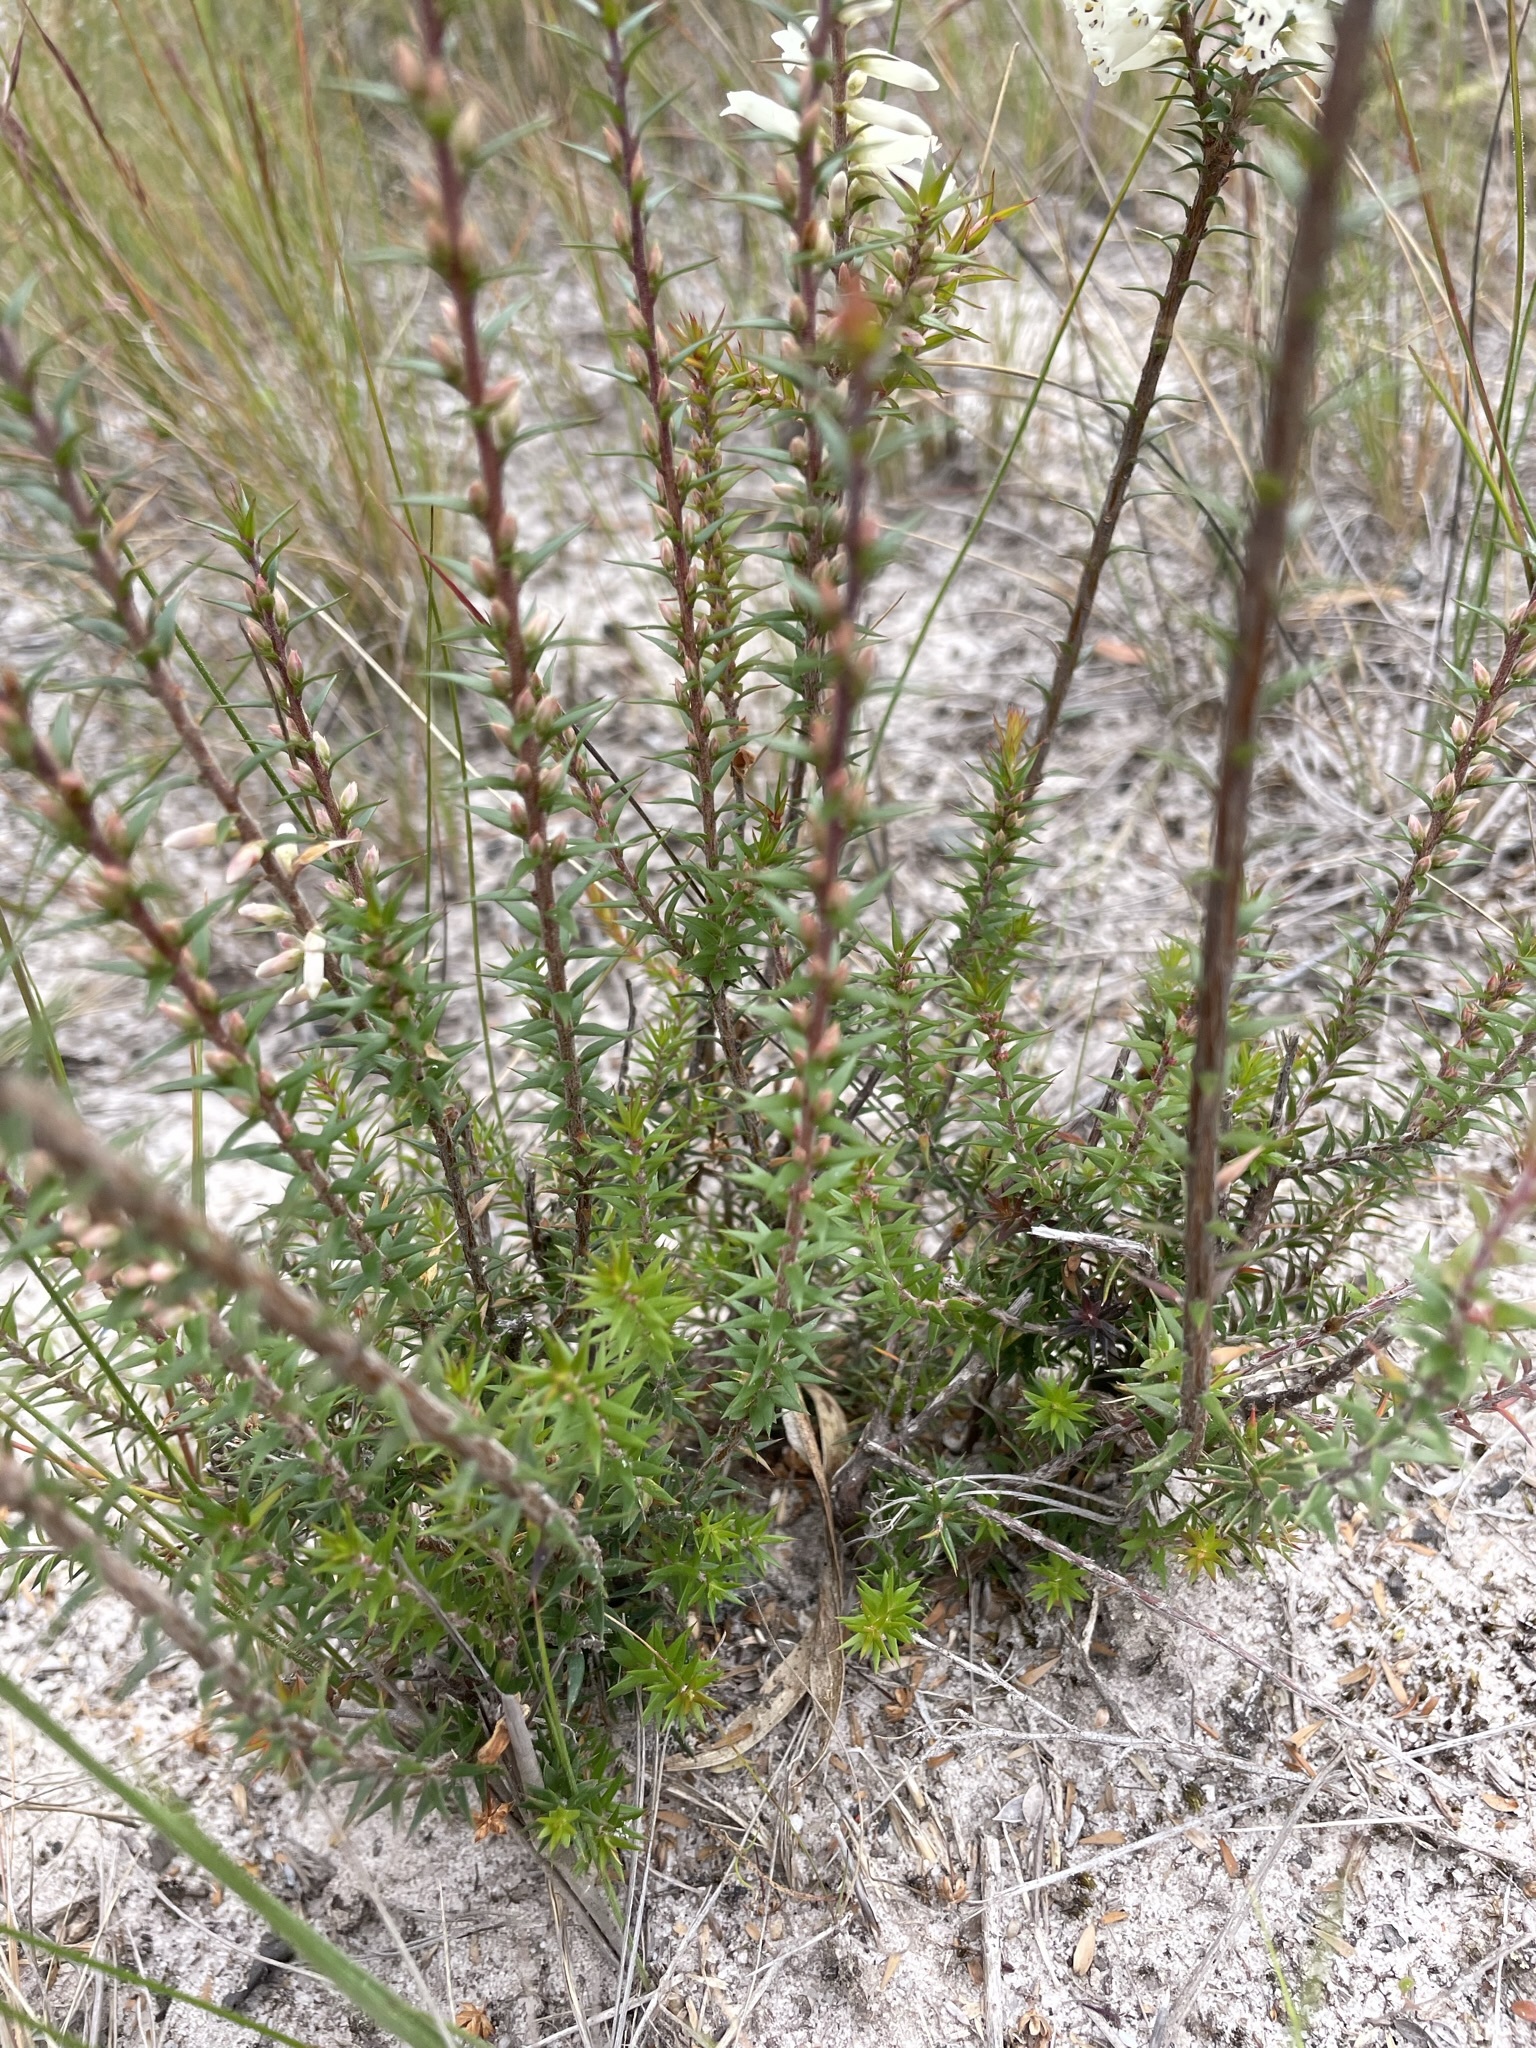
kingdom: Plantae
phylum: Tracheophyta
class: Magnoliopsida
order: Ericales
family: Ericaceae
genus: Epacris
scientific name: Epacris impressa
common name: Common-heath
